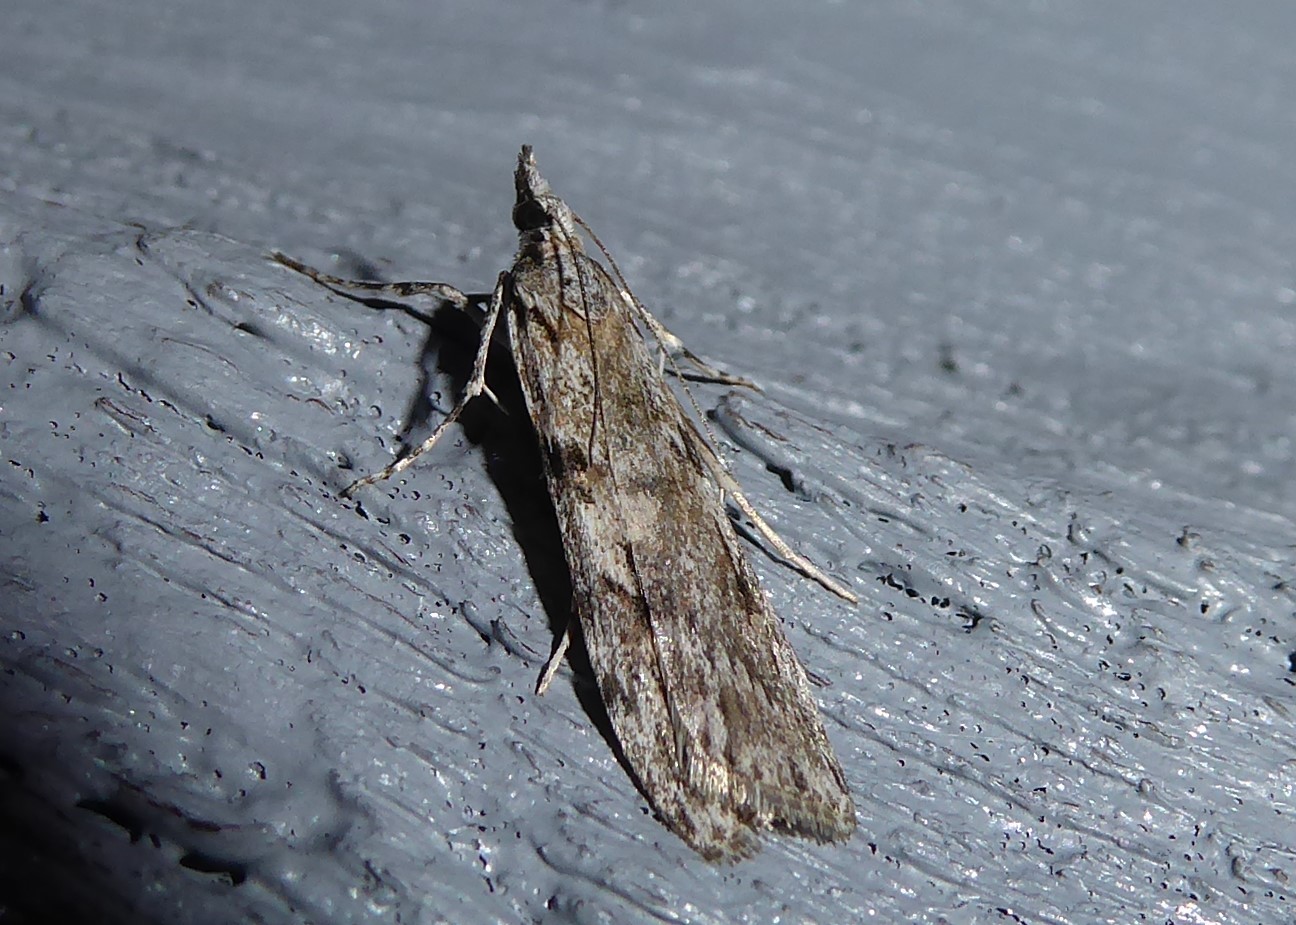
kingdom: Animalia
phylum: Arthropoda
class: Insecta
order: Lepidoptera
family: Crambidae
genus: Scoparia
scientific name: Scoparia halopis
